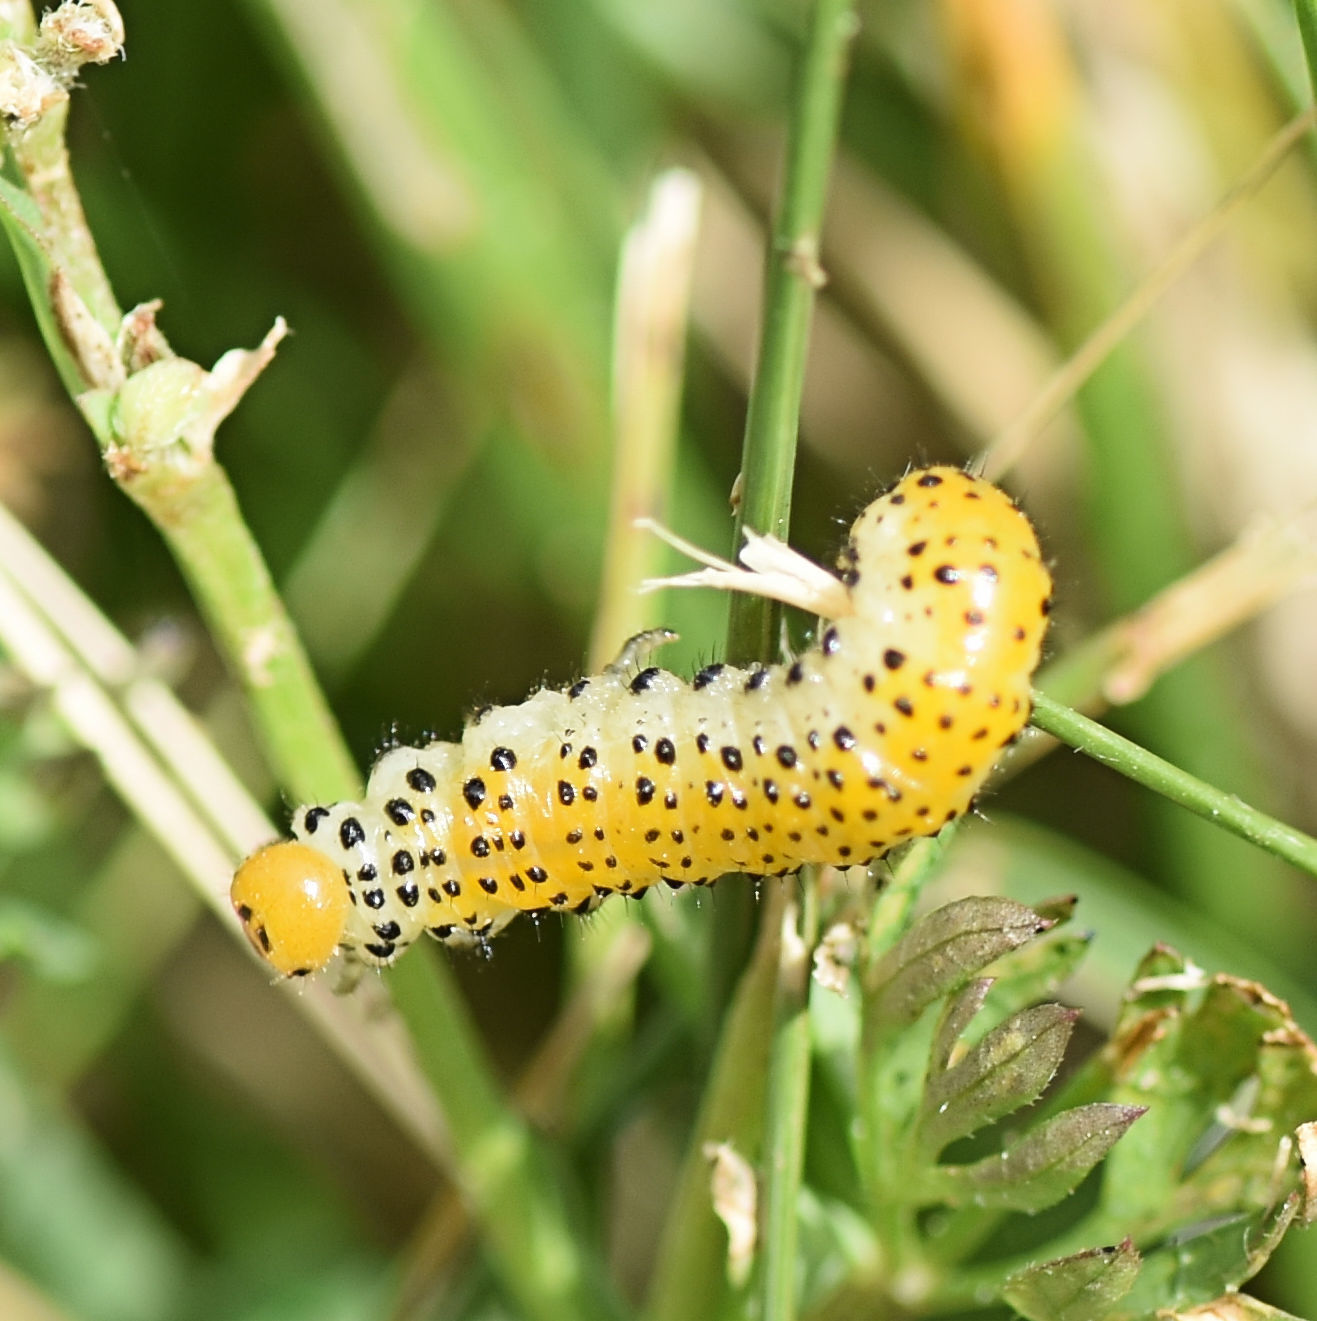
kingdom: Animalia
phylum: Arthropoda
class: Insecta
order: Hymenoptera
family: Argidae
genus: Arge
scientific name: Arge ochropus
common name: Argid sawfly
